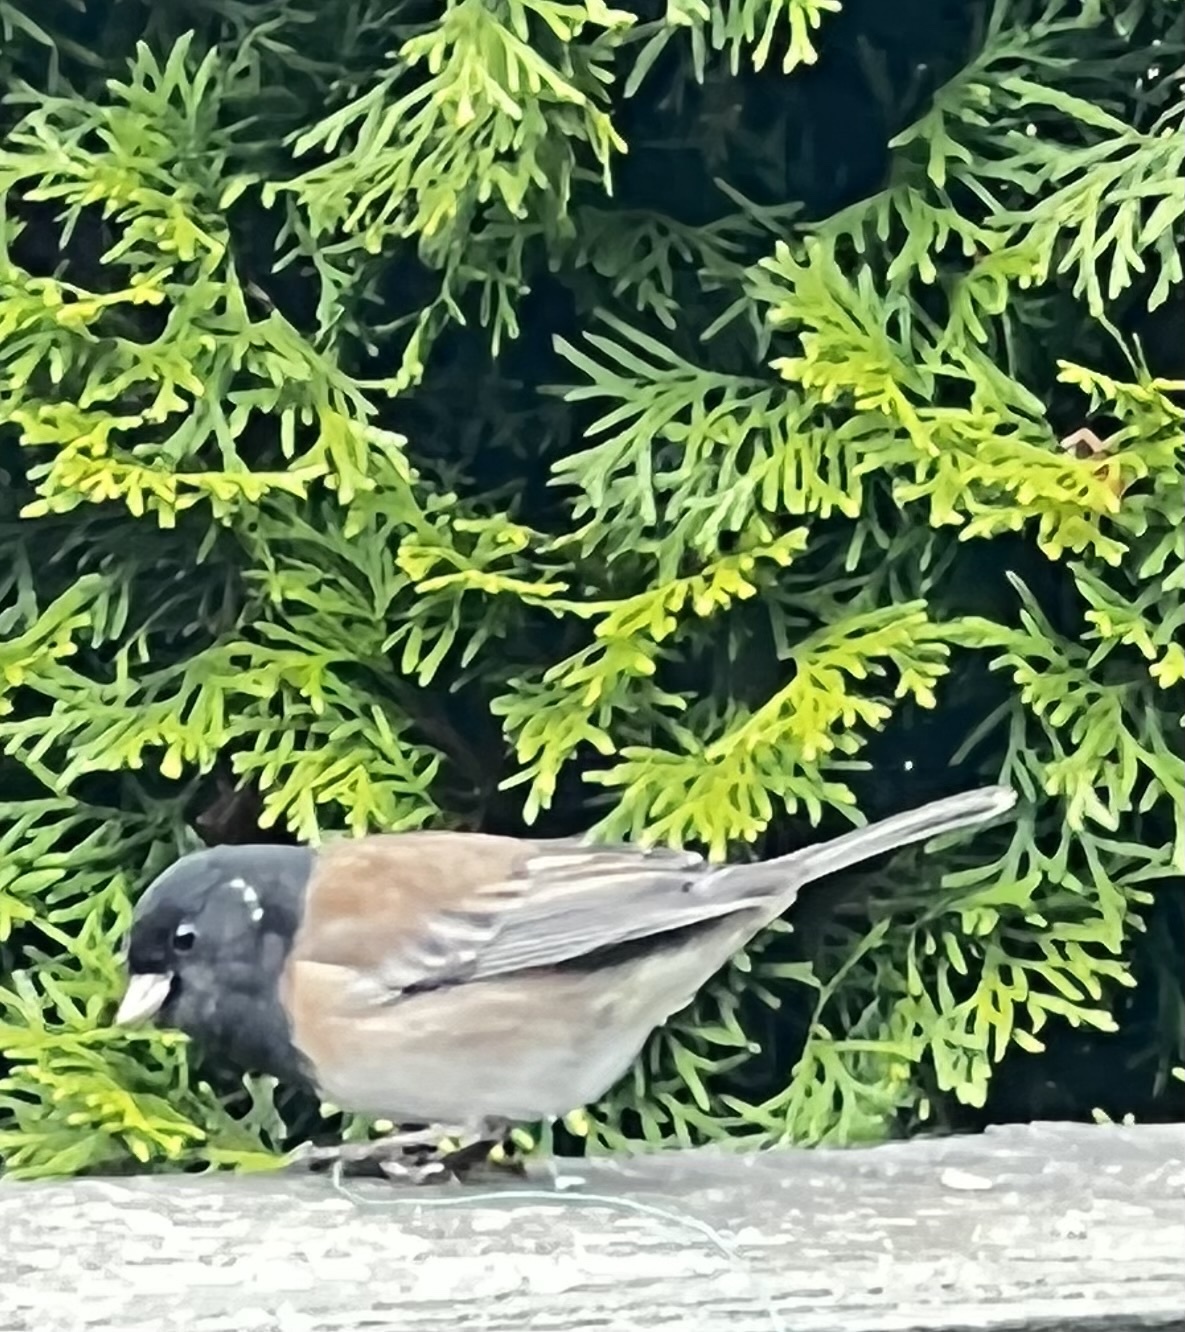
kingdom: Animalia
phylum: Chordata
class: Aves
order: Passeriformes
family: Passerellidae
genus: Junco
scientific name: Junco hyemalis
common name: Dark-eyed junco
